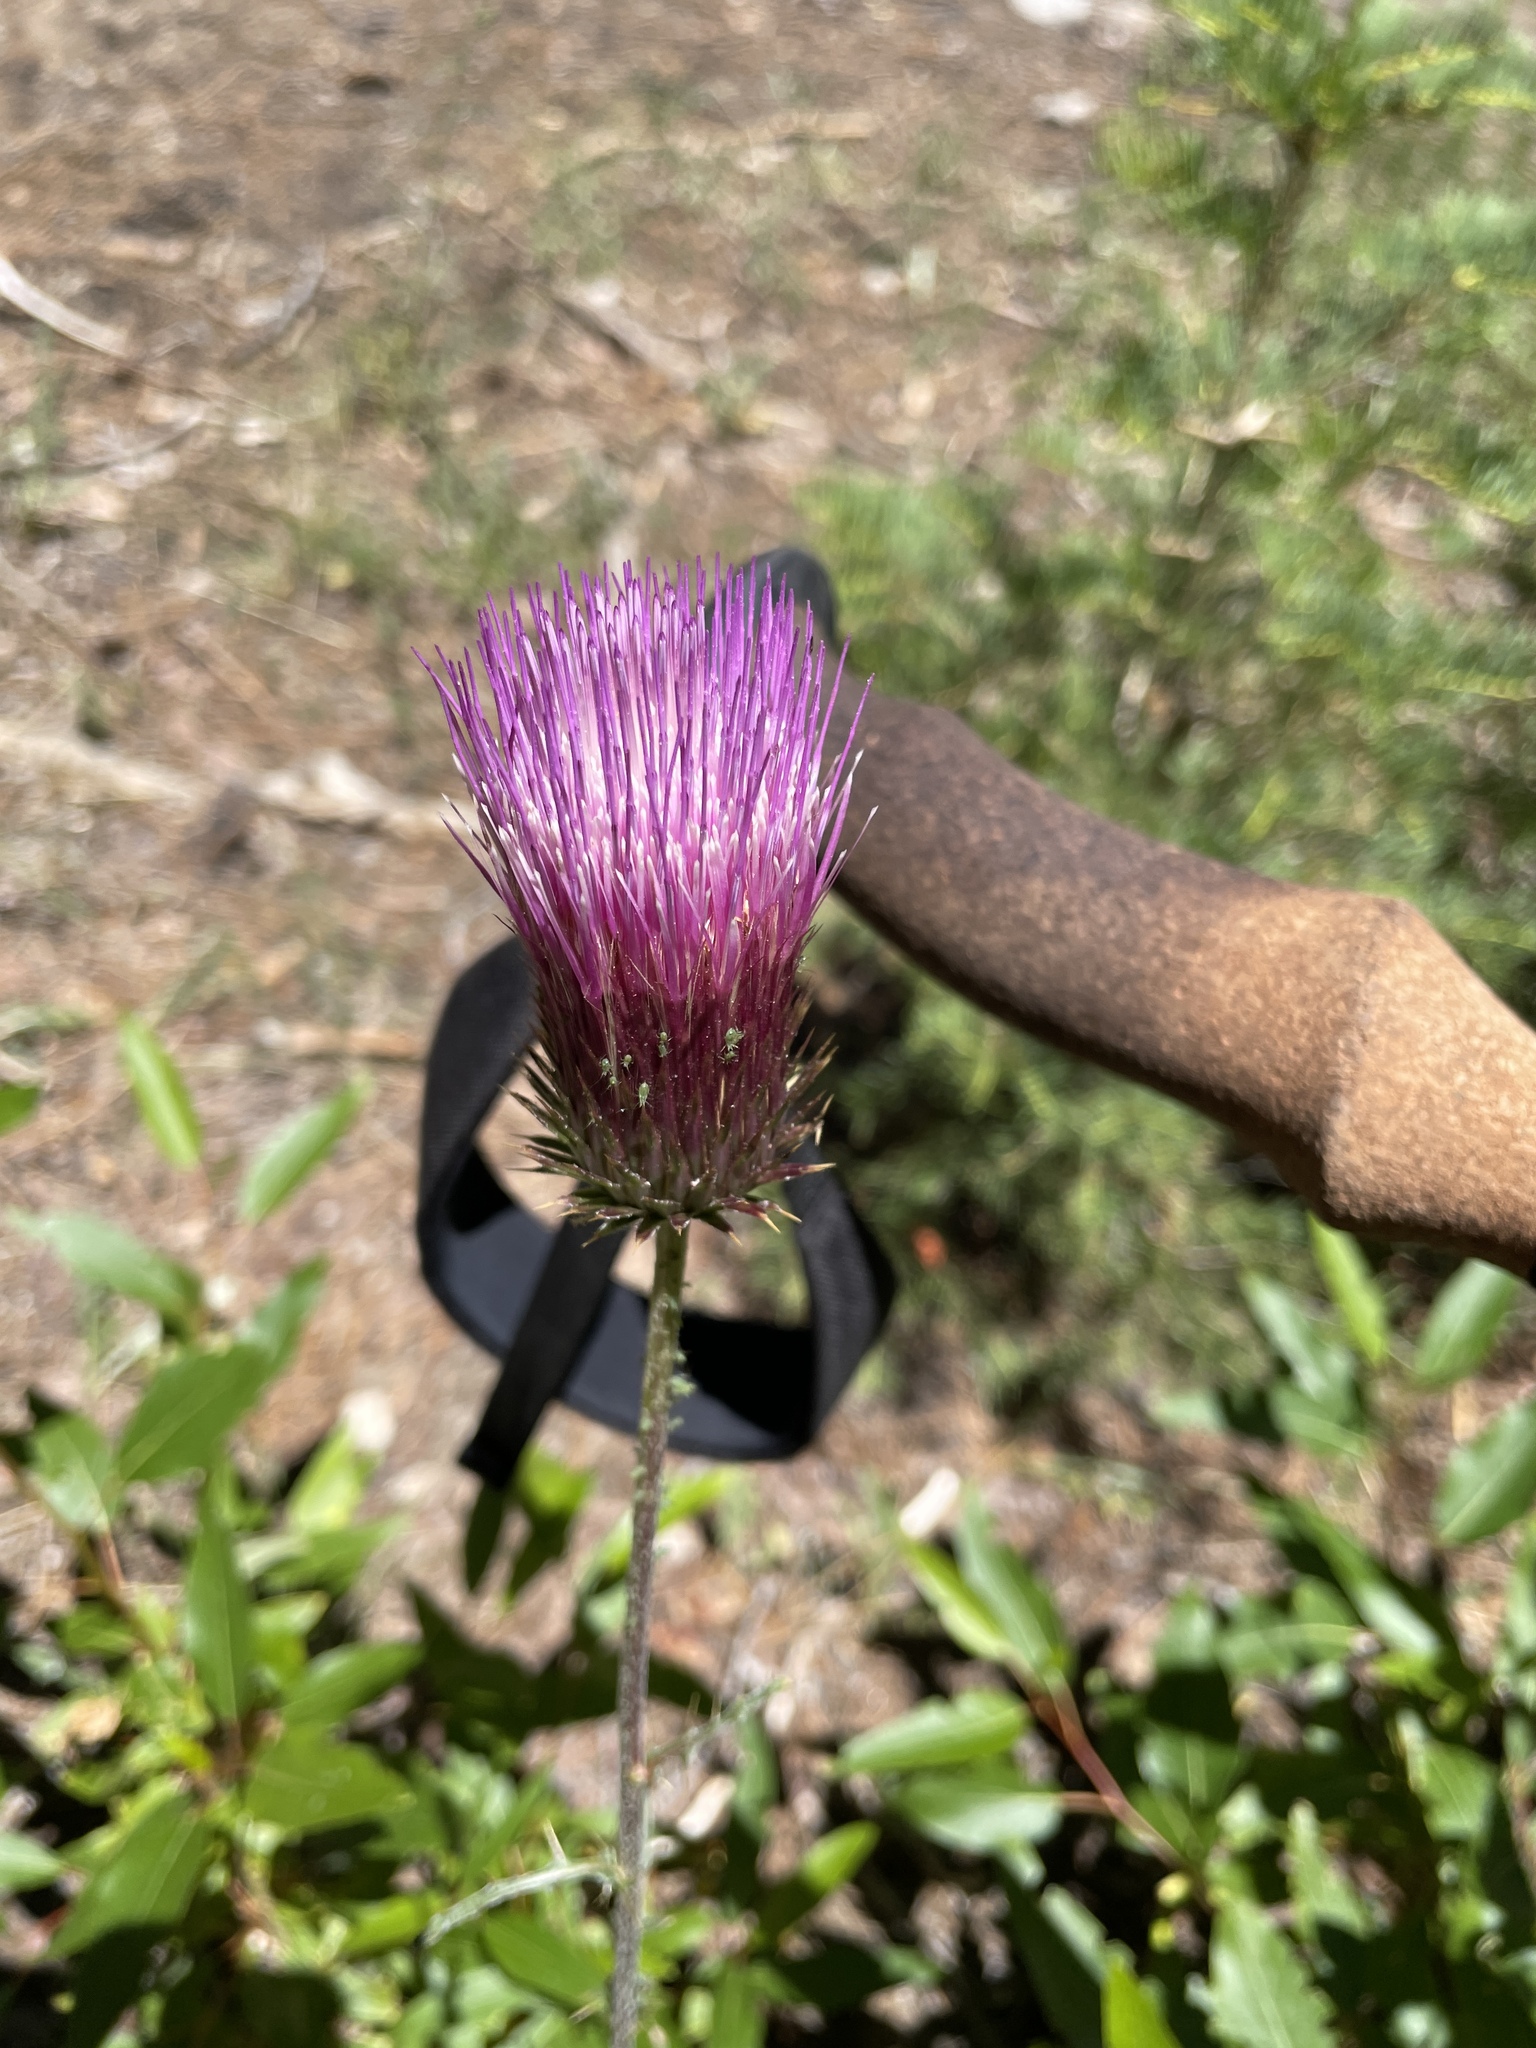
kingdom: Plantae
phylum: Tracheophyta
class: Magnoliopsida
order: Asterales
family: Asteraceae
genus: Cirsium
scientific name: Cirsium andersonii
